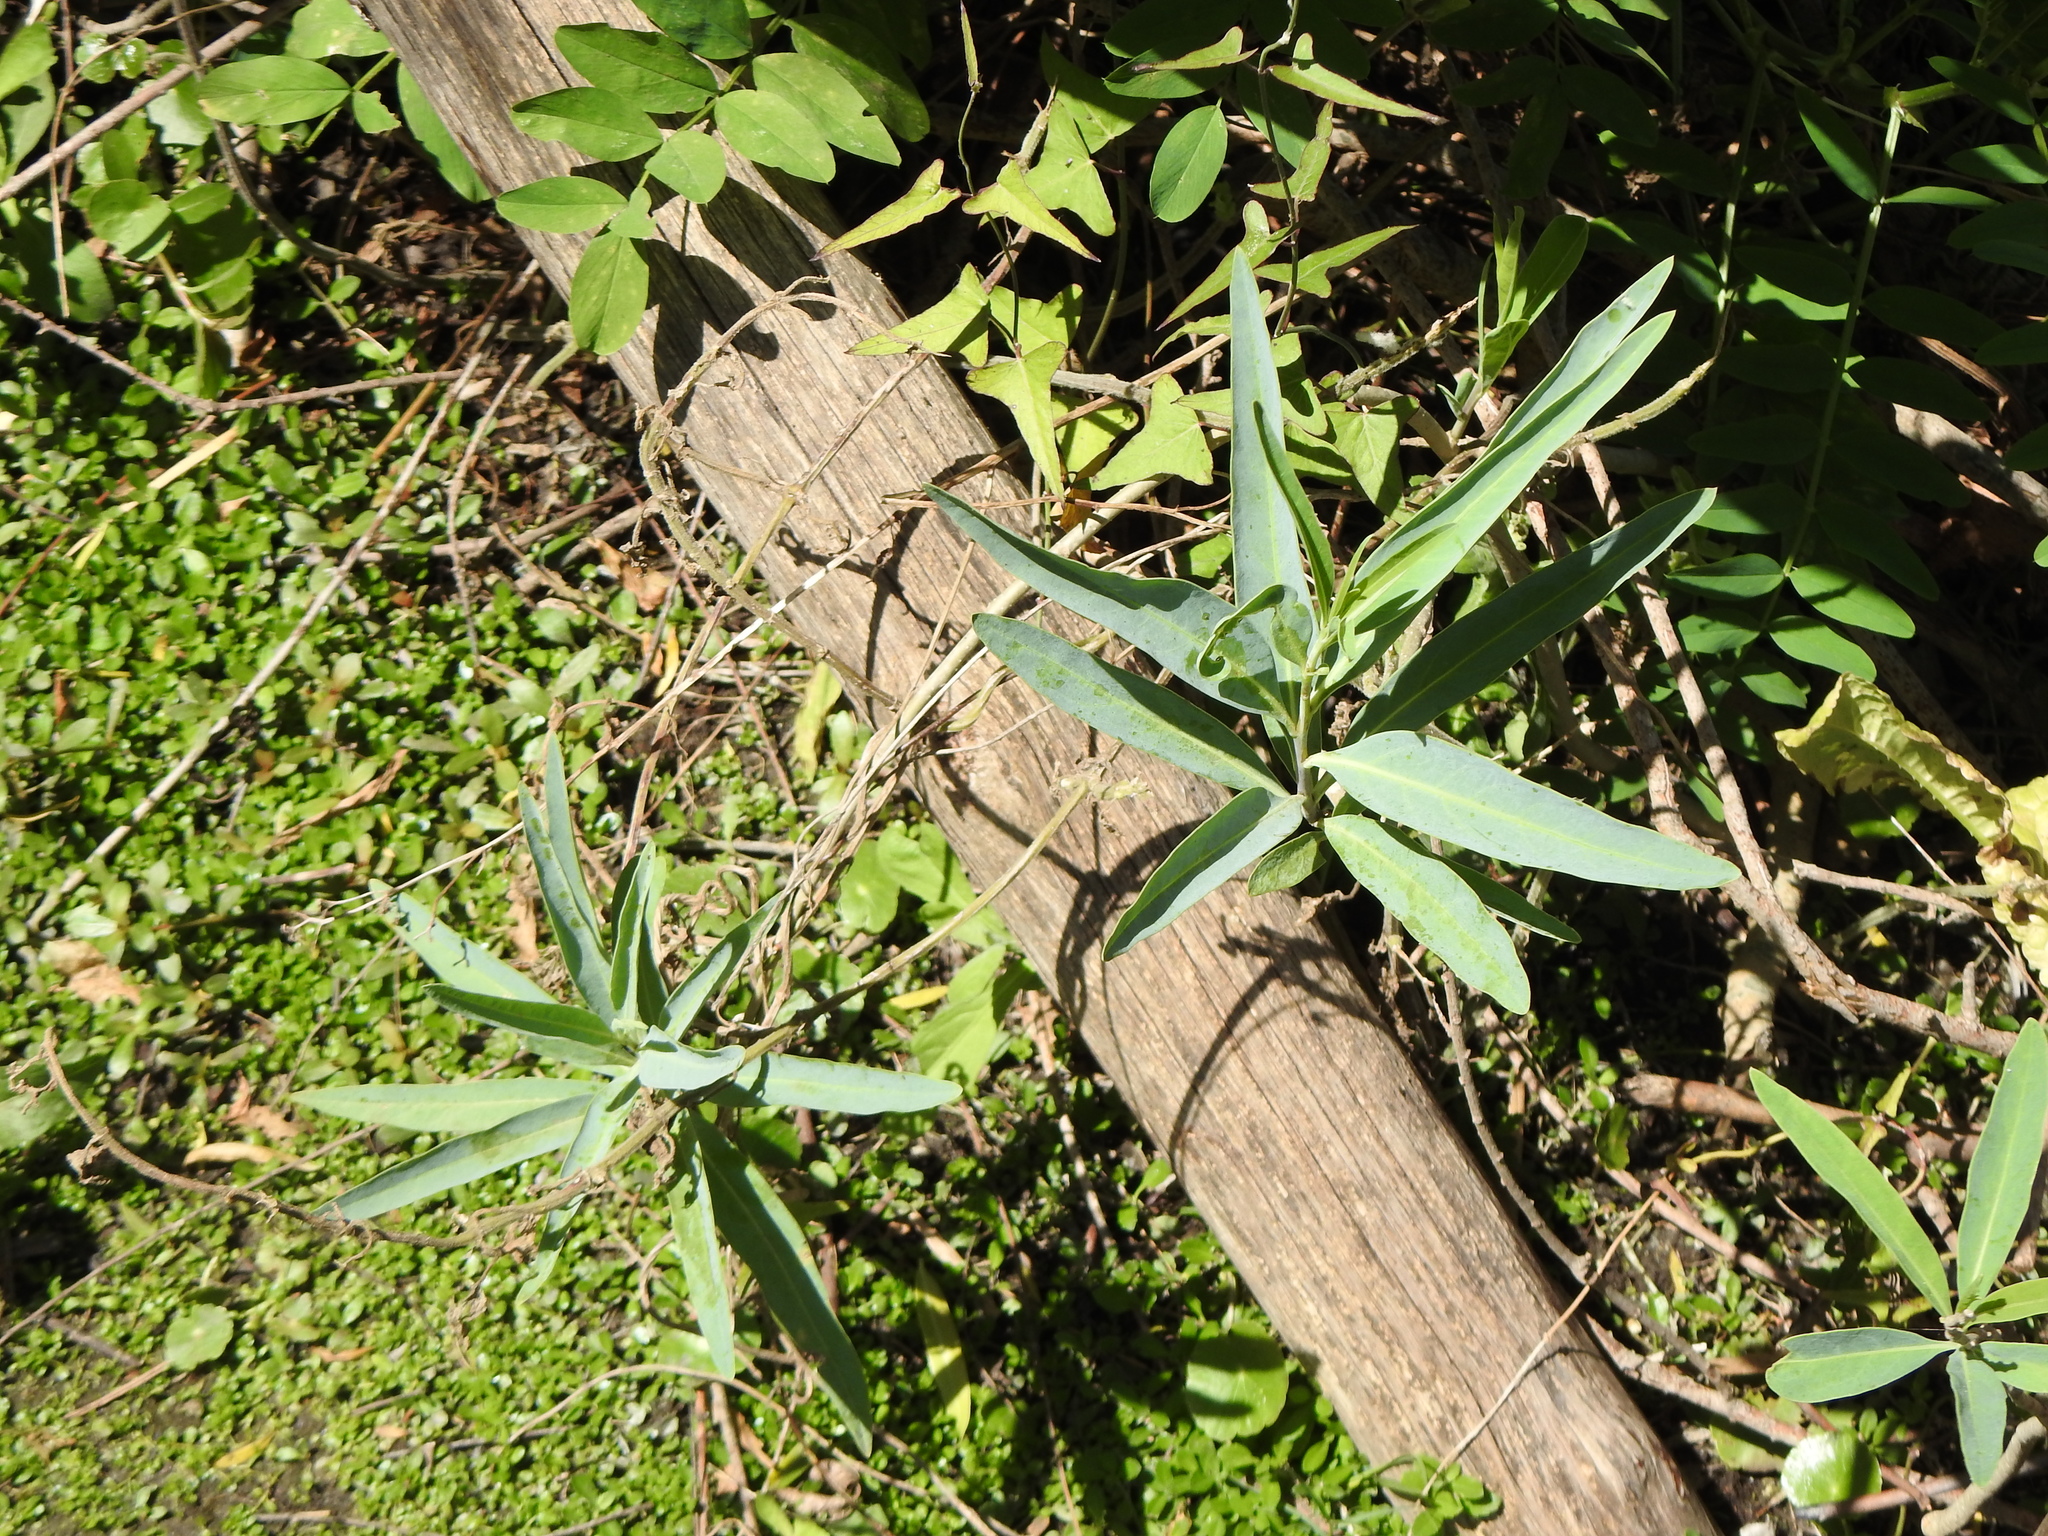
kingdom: Plantae
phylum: Tracheophyta
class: Magnoliopsida
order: Solanales
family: Solanaceae
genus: Solanum
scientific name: Solanum glaucophyllum
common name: Waxyleaf nightshade
